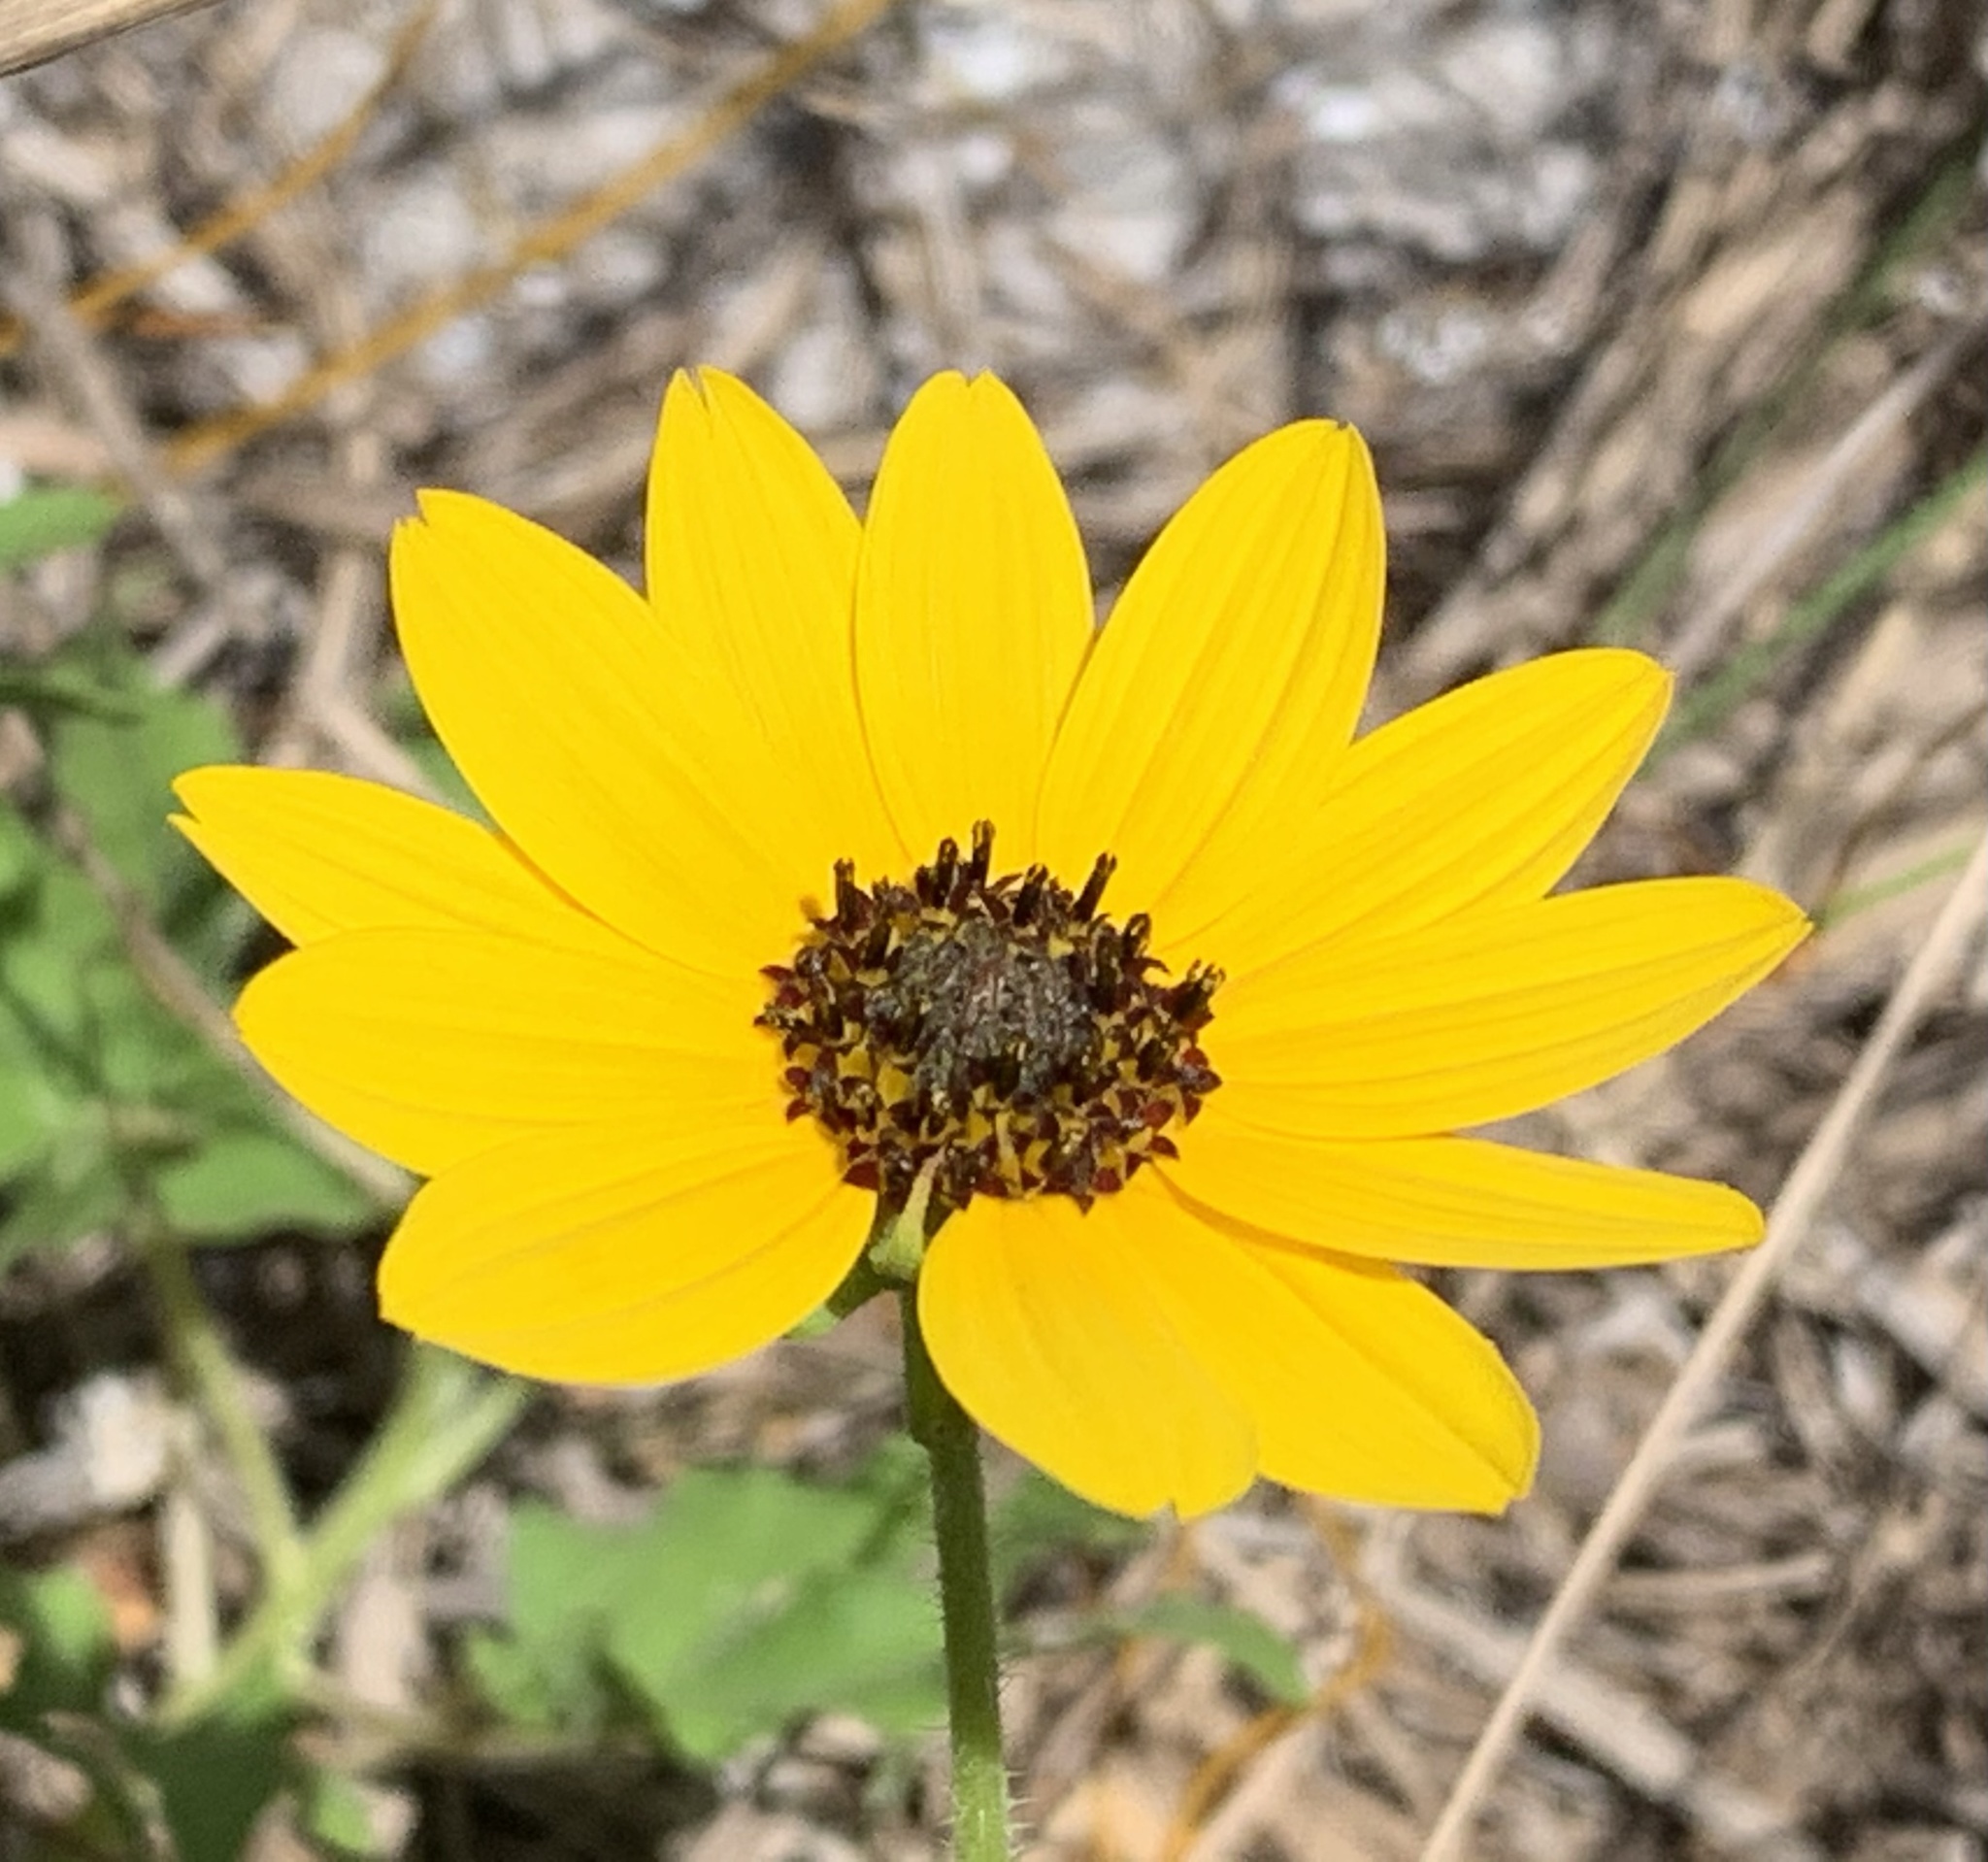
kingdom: Plantae
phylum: Tracheophyta
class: Magnoliopsida
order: Asterales
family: Asteraceae
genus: Helianthus
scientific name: Helianthus debilis
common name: Weak sunflower
